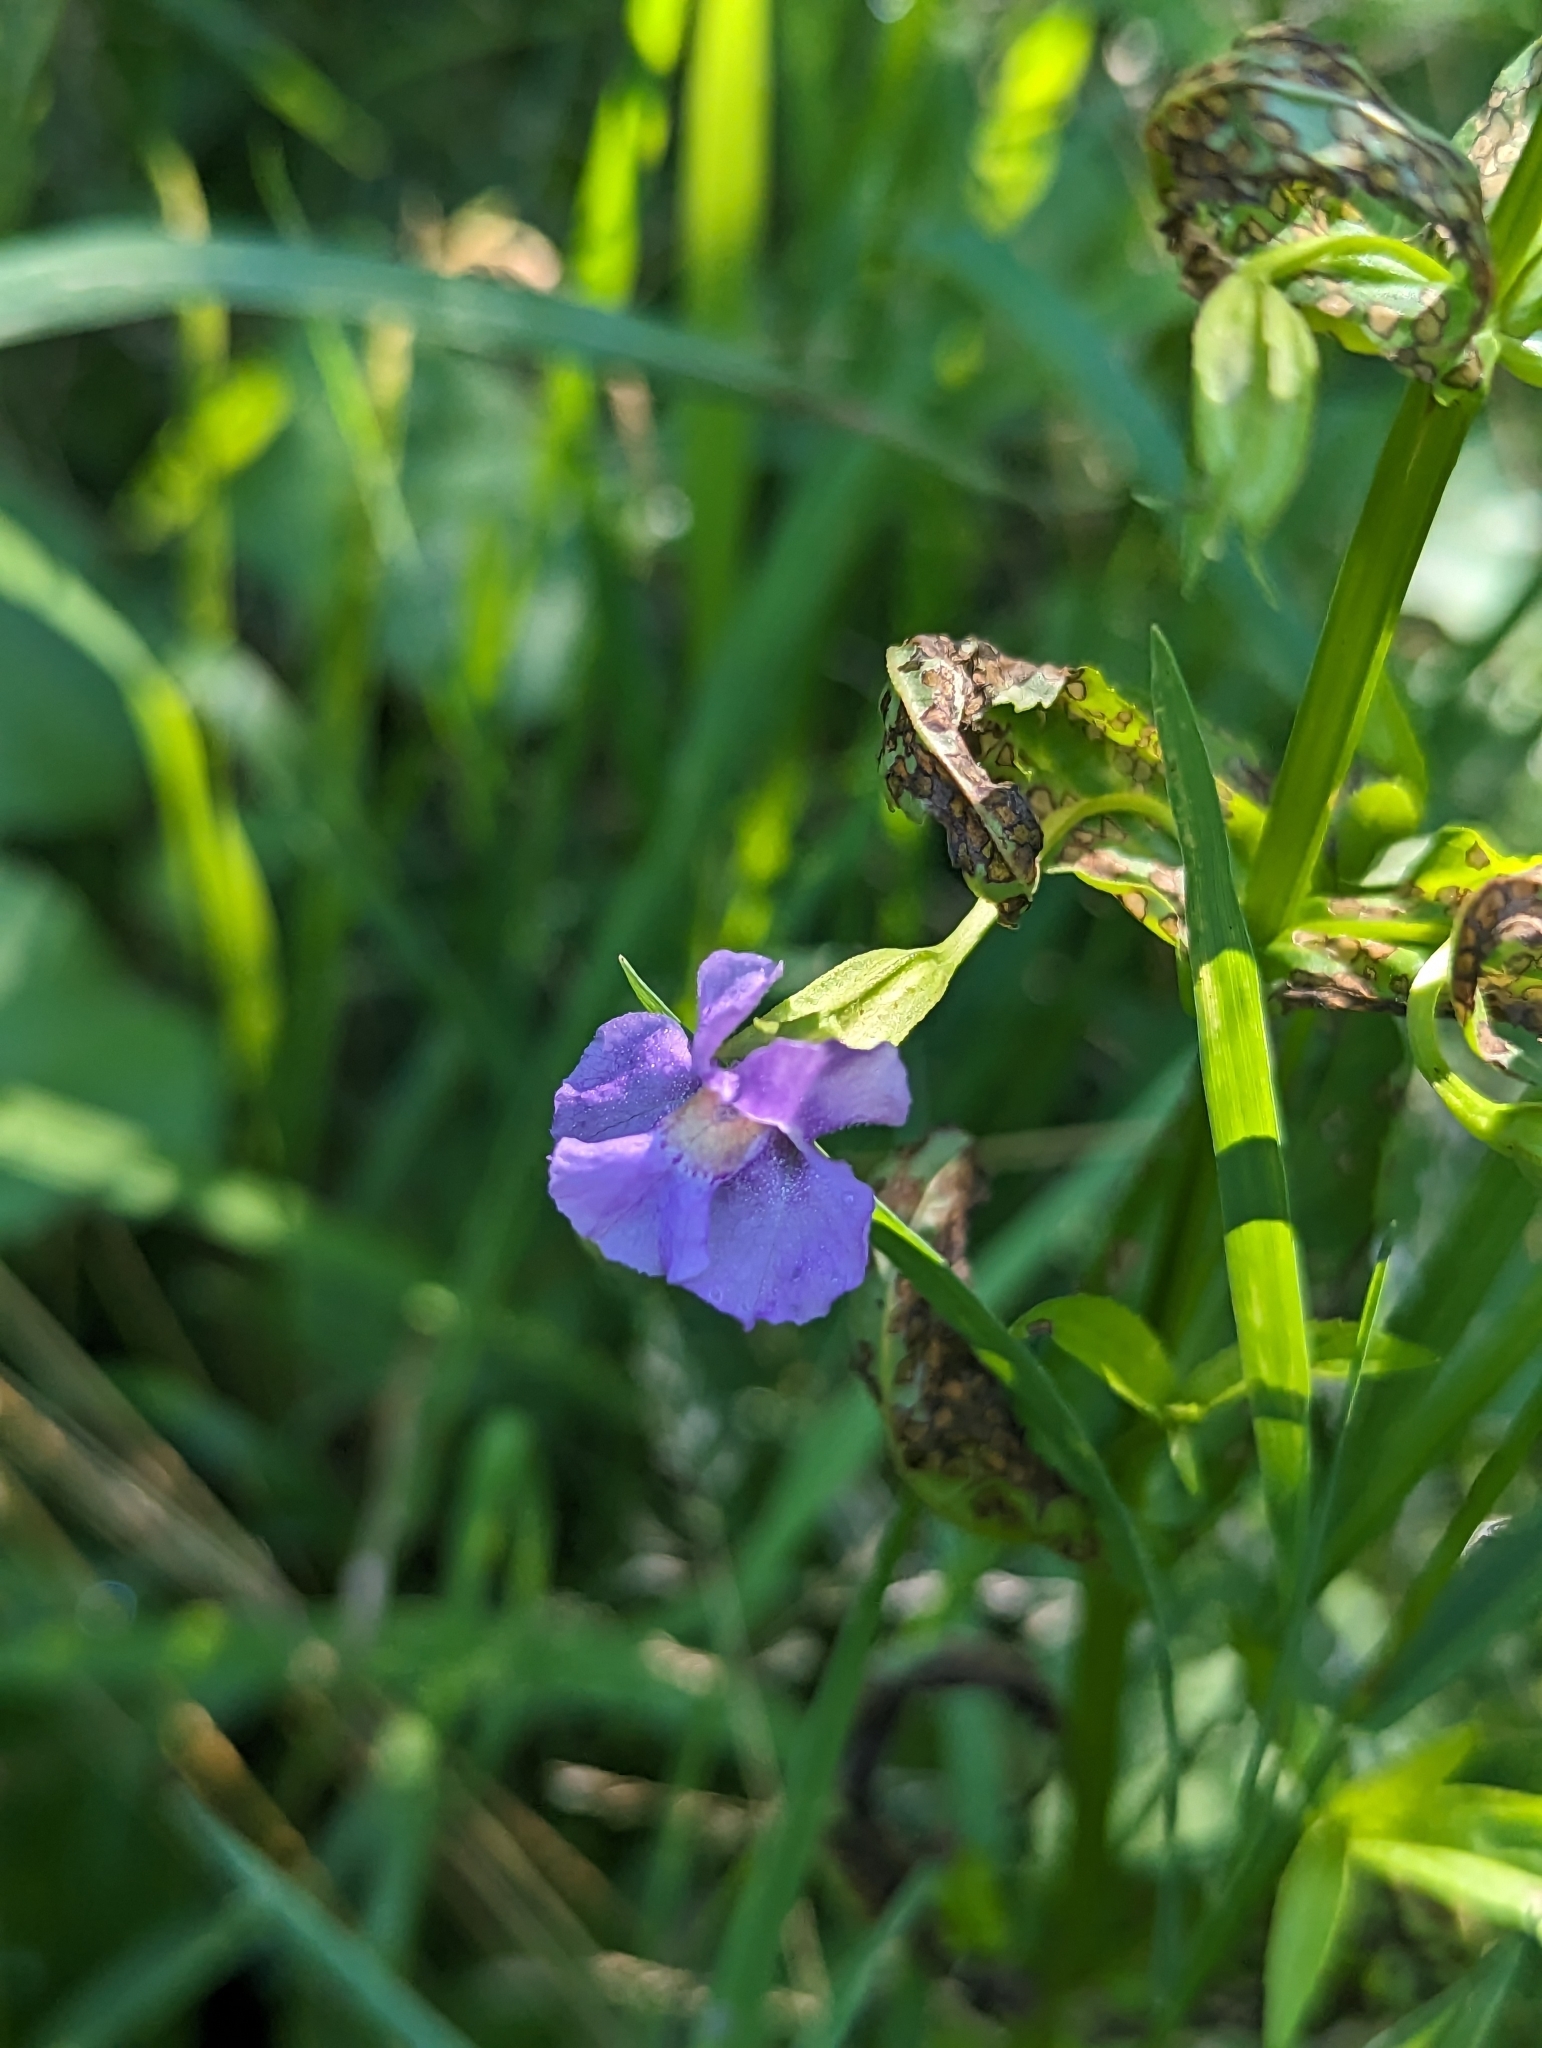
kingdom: Plantae
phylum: Tracheophyta
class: Magnoliopsida
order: Lamiales
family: Phrymaceae
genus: Mimulus
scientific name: Mimulus ringens
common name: Allegheny monkeyflower
